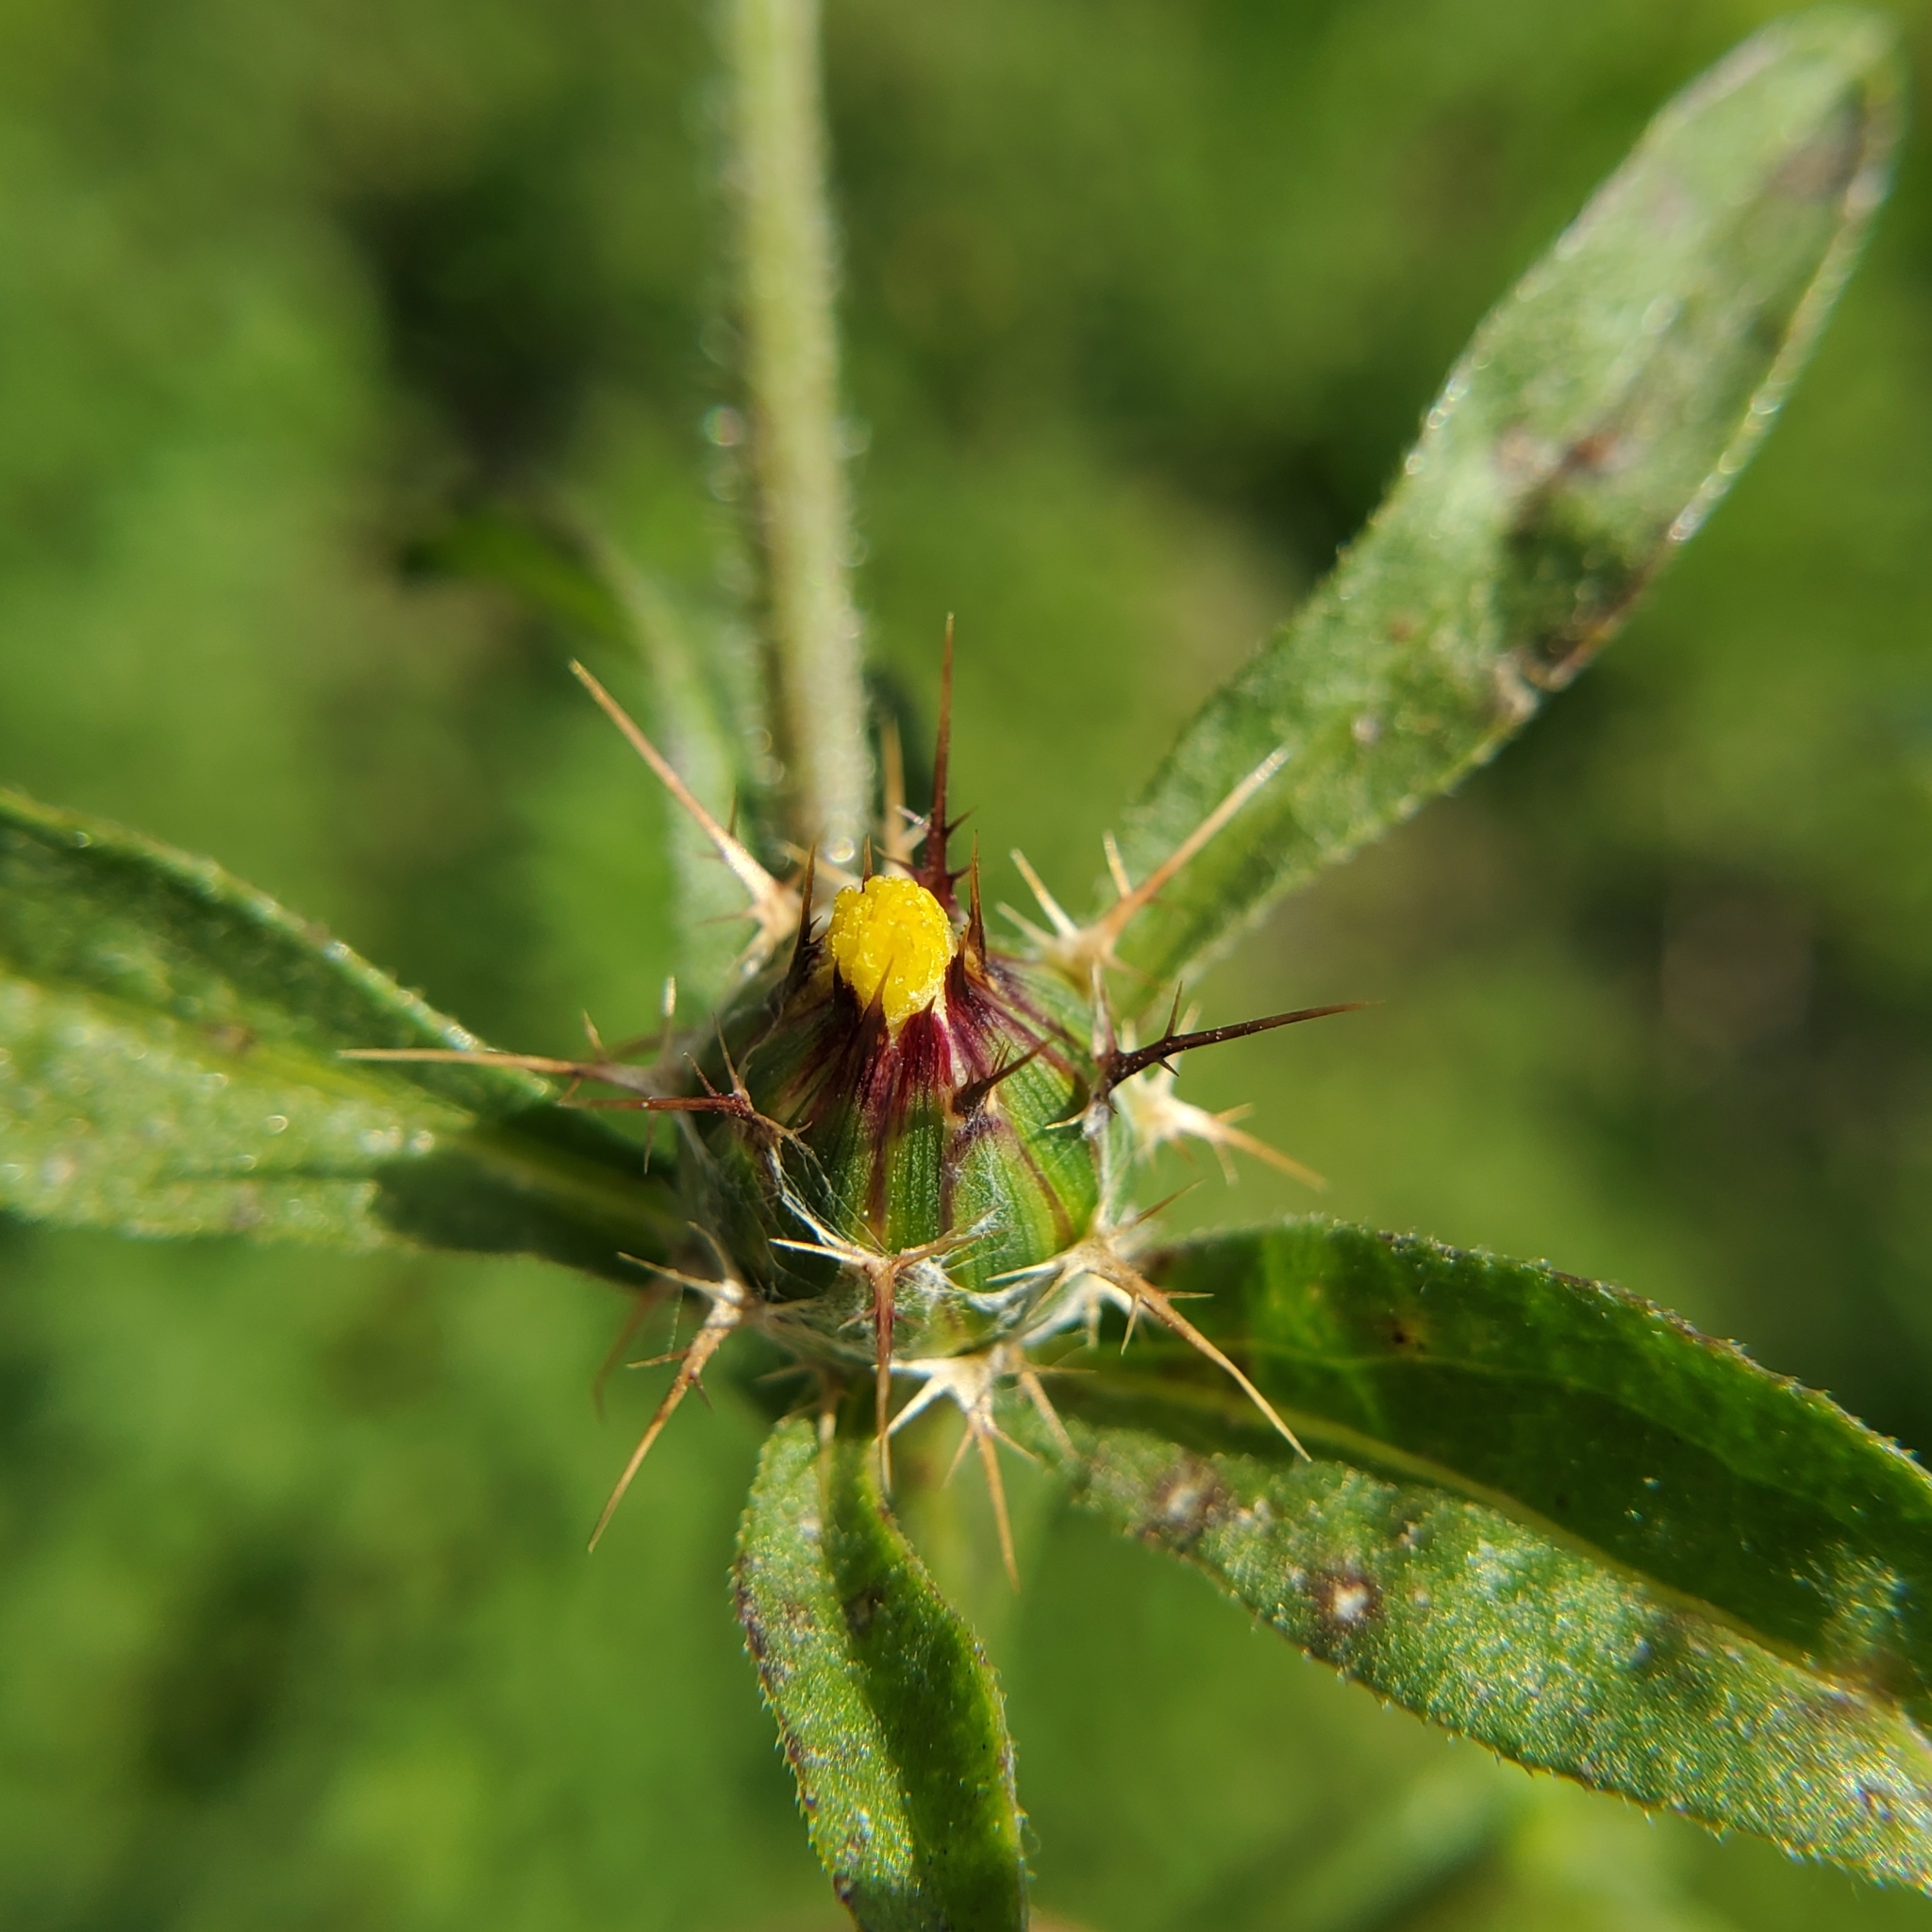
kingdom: Plantae
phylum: Tracheophyta
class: Magnoliopsida
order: Asterales
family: Asteraceae
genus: Centaurea
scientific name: Centaurea melitensis
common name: Maltese star-thistle
